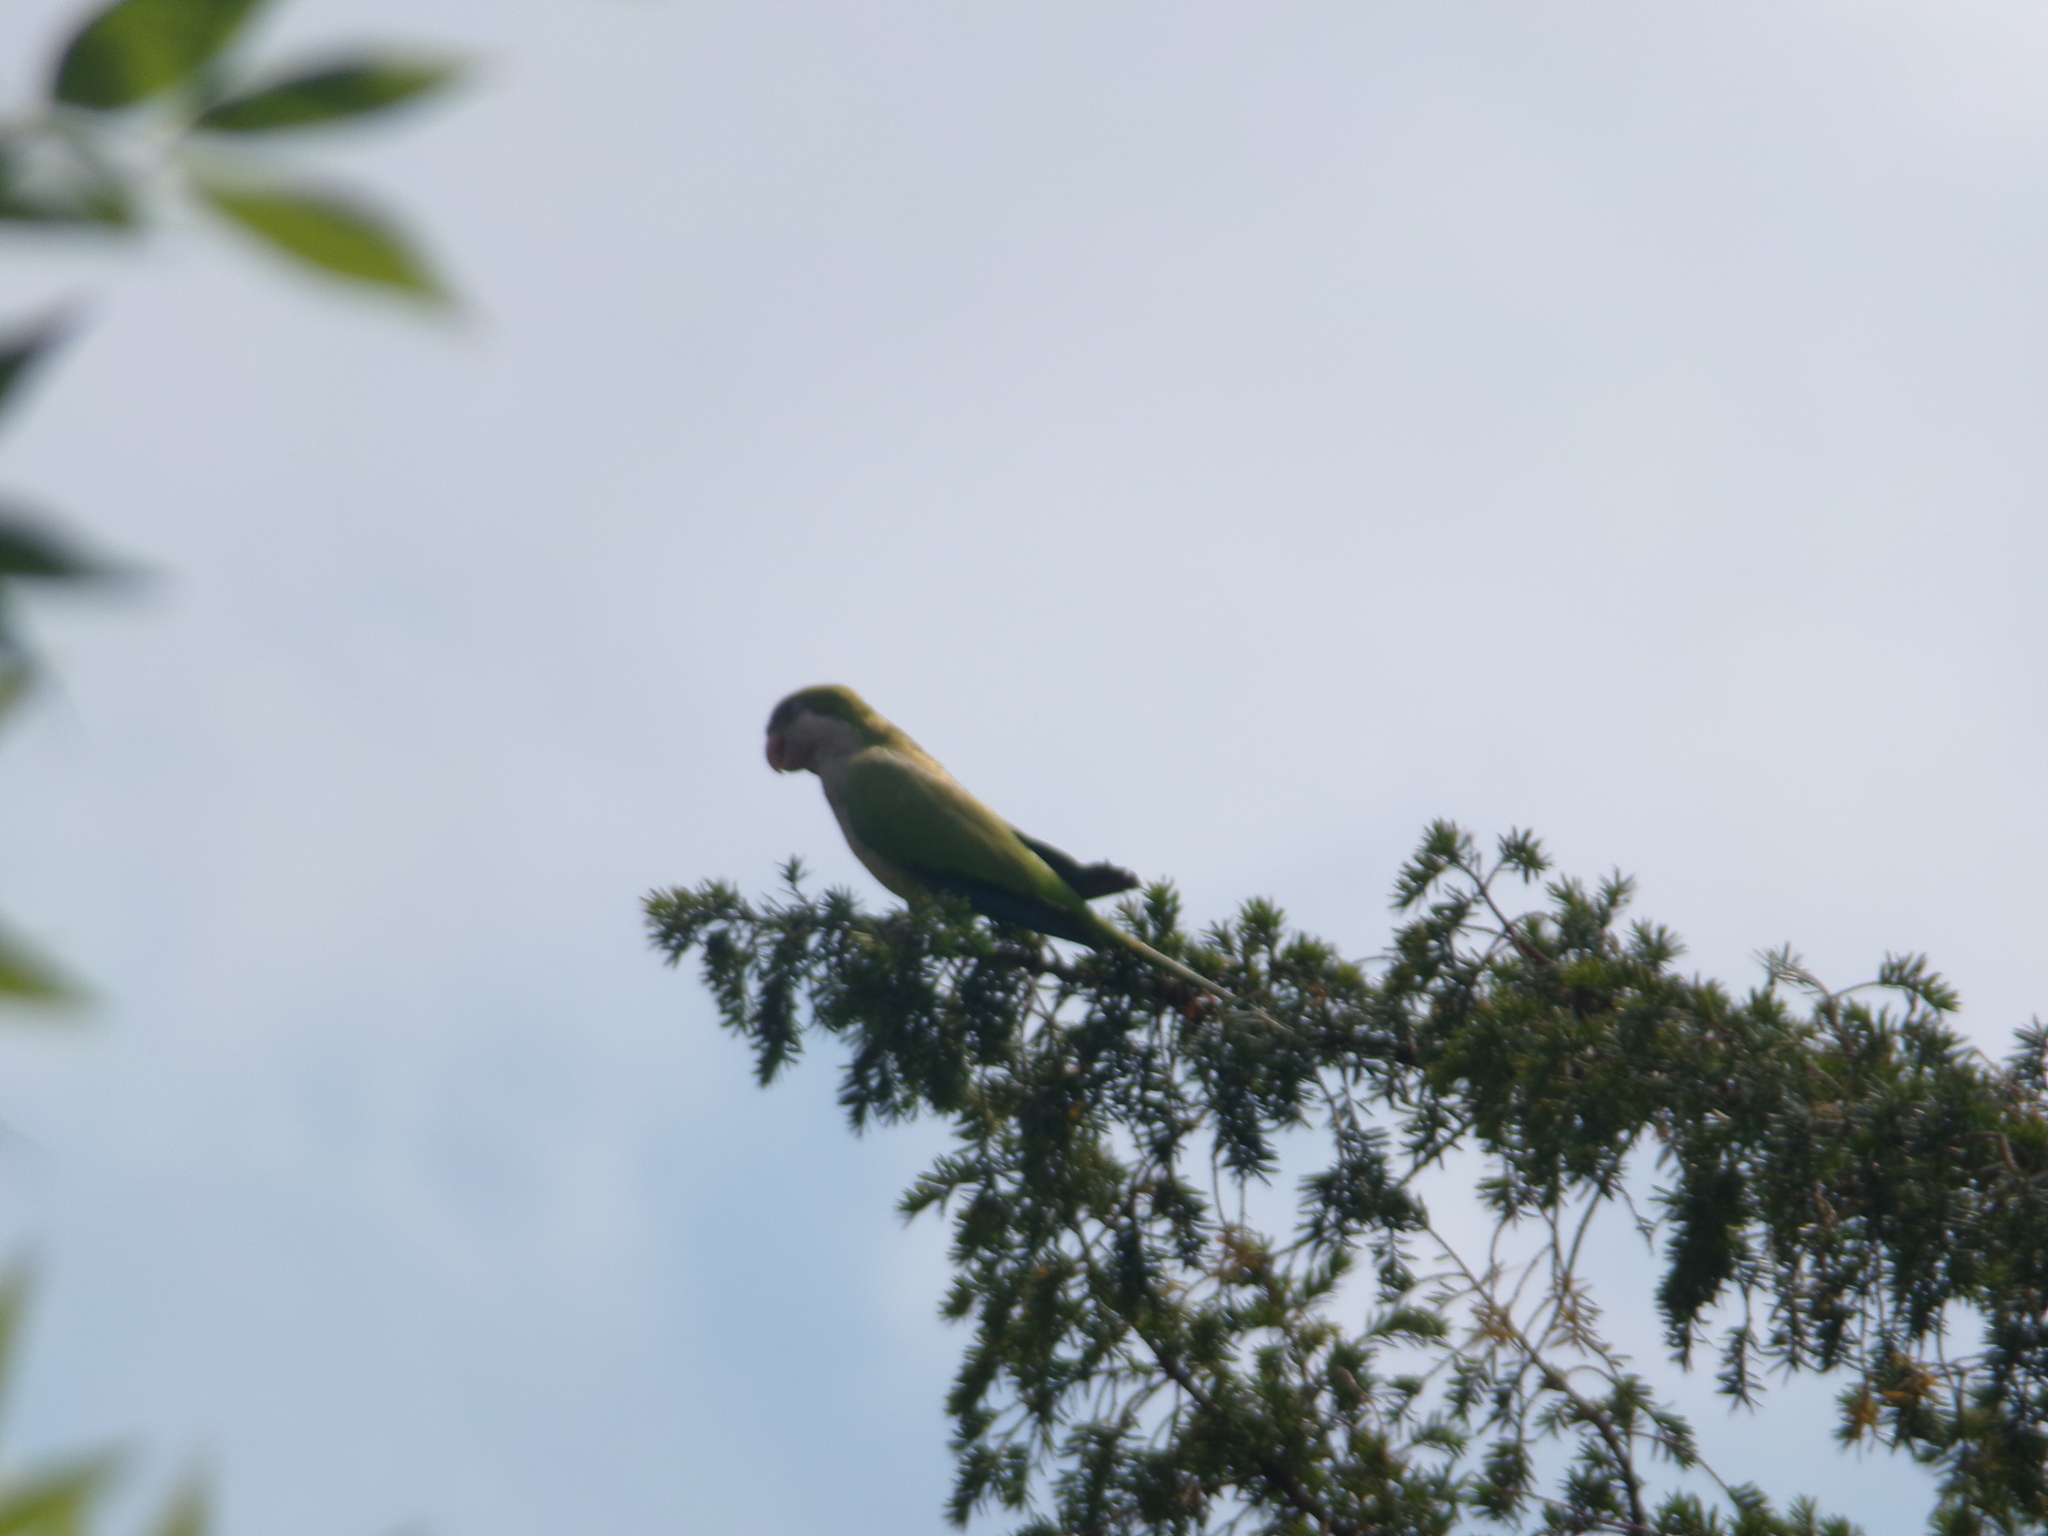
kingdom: Animalia
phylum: Chordata
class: Aves
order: Psittaciformes
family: Psittacidae
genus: Myiopsitta
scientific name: Myiopsitta monachus
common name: Monk parakeet
